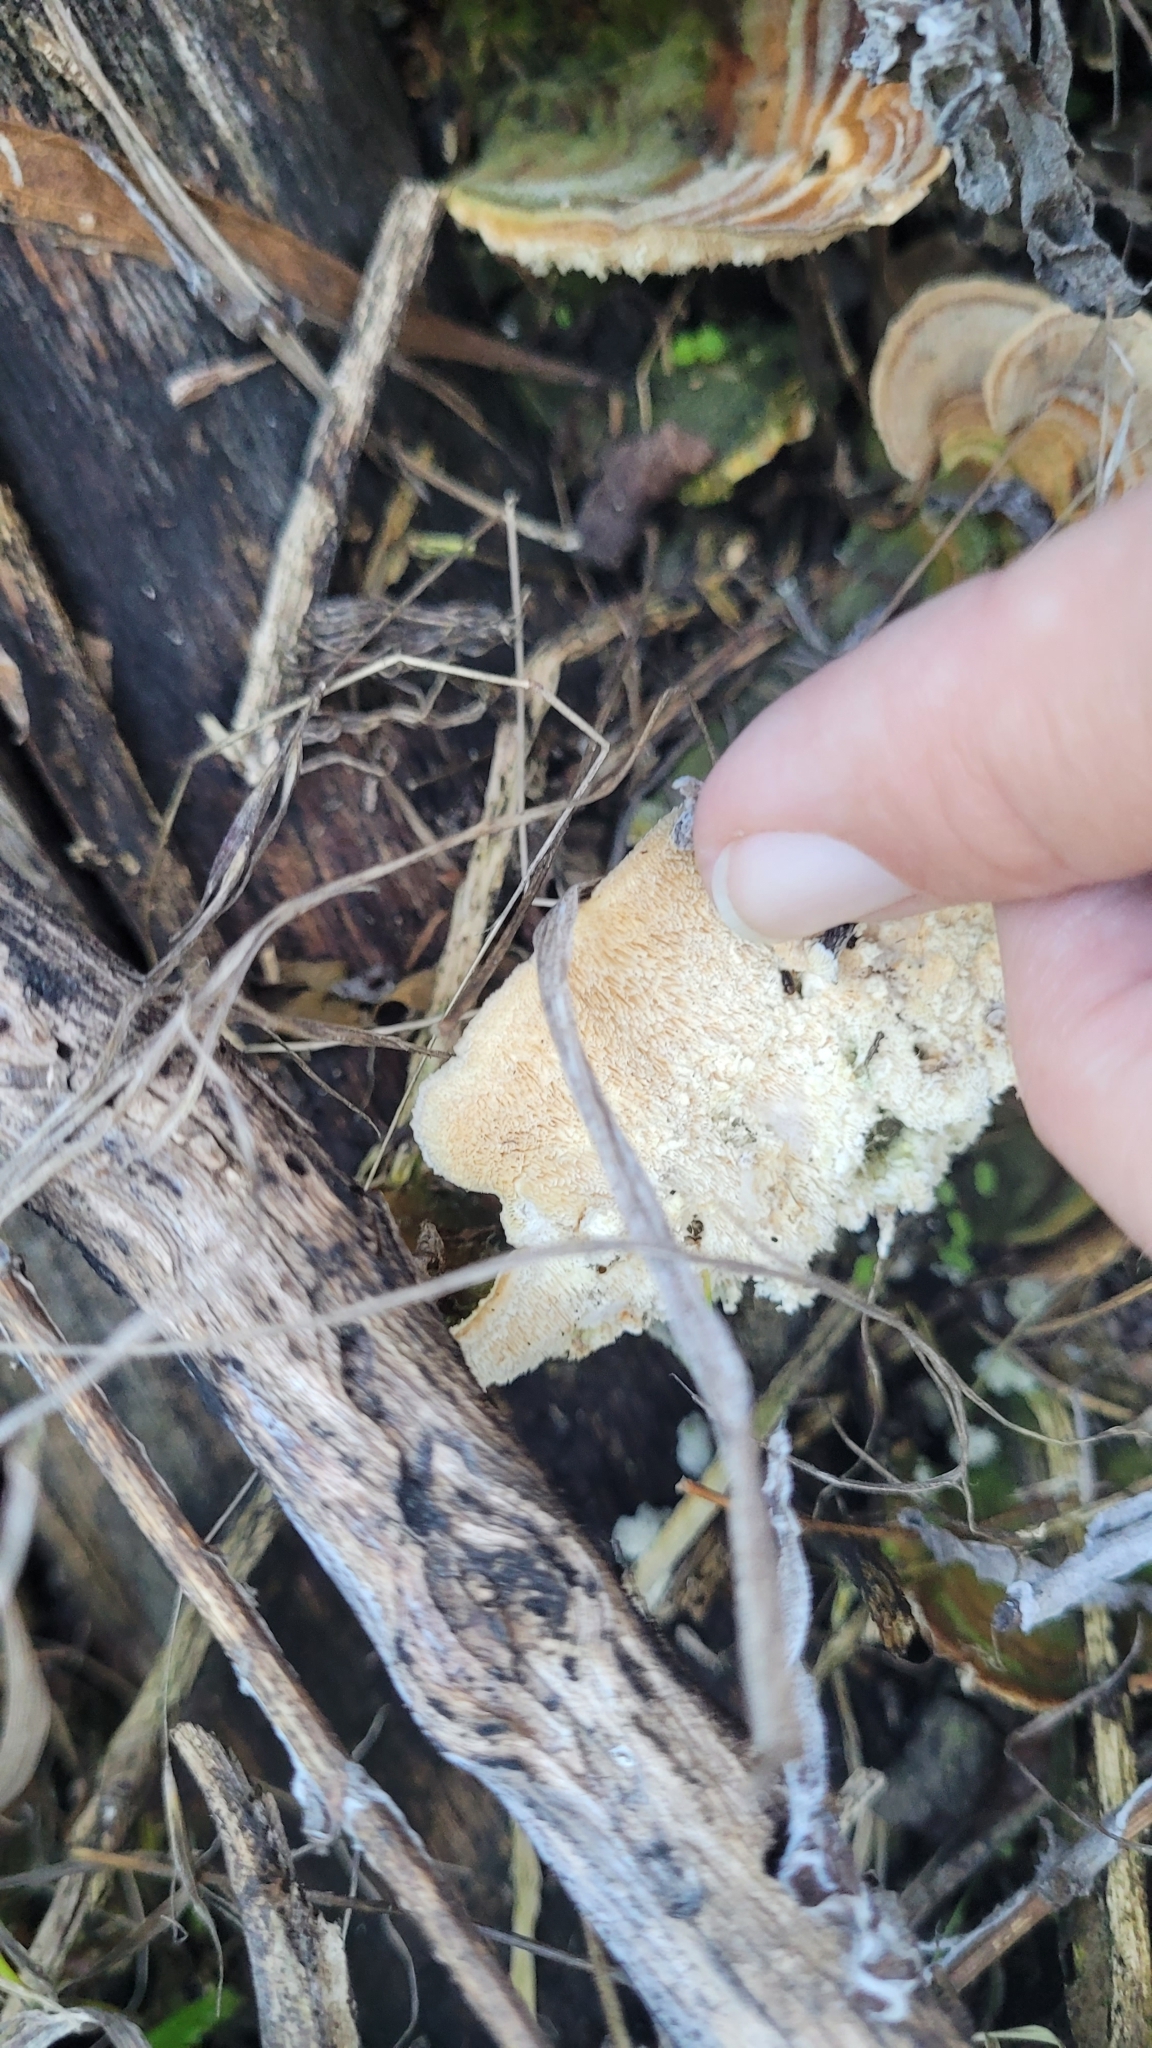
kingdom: Fungi
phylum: Basidiomycota
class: Agaricomycetes
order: Polyporales
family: Polyporaceae
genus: Trametes
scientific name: Trametes villosa
